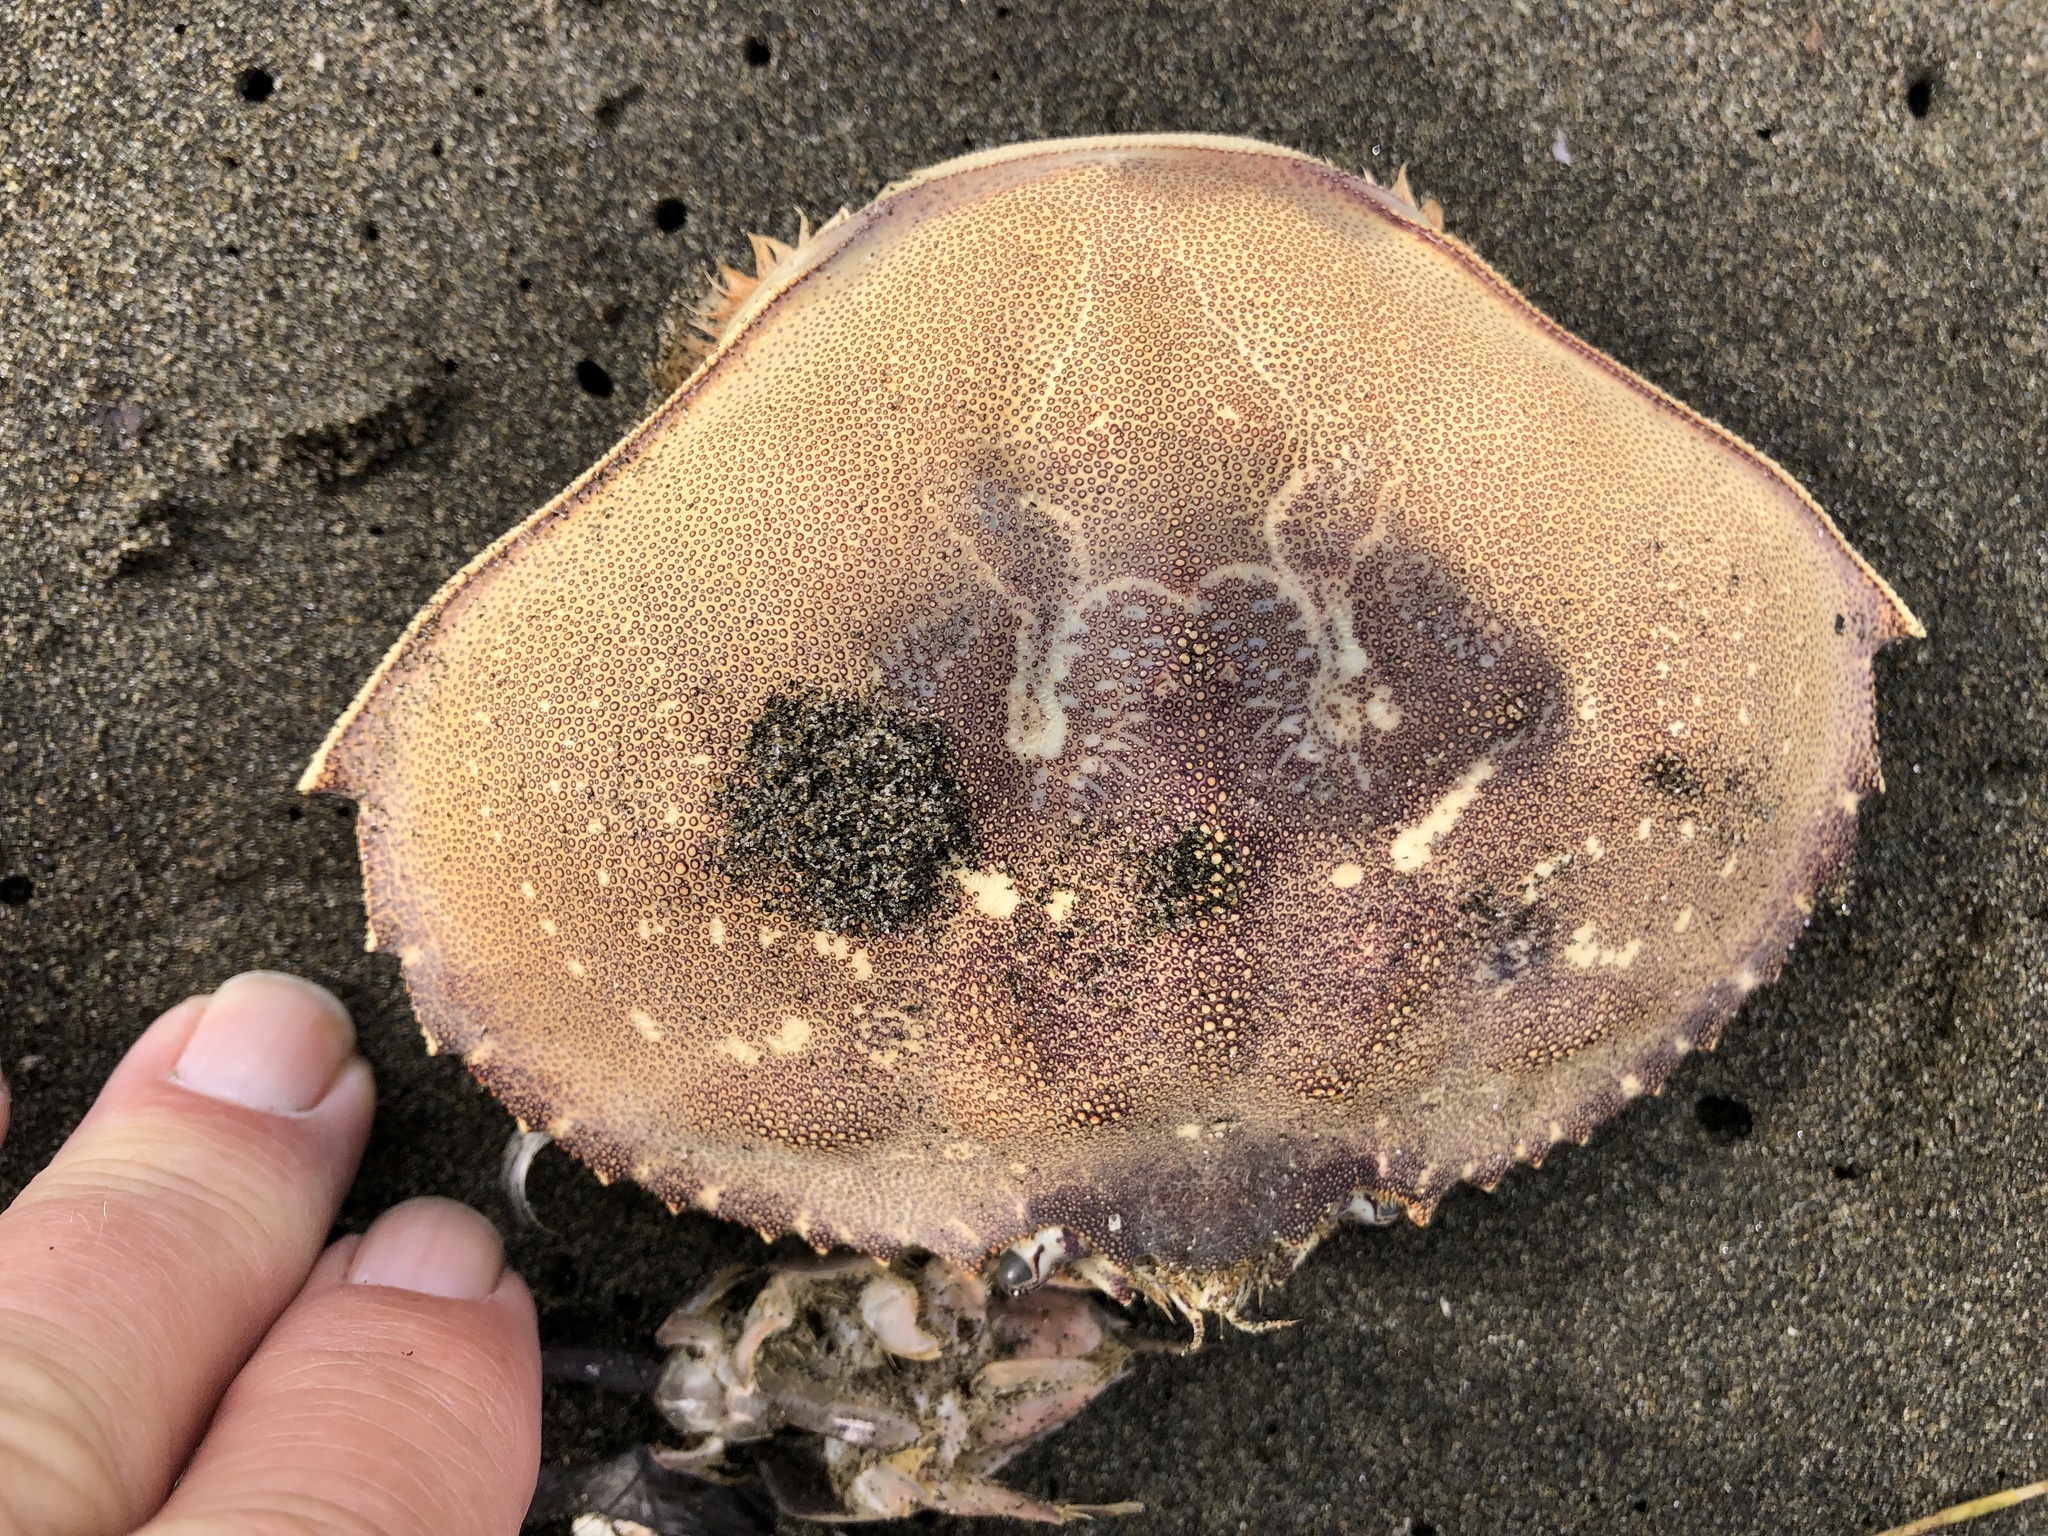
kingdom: Animalia
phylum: Arthropoda
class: Malacostraca
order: Decapoda
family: Cancridae
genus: Metacarcinus
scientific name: Metacarcinus magister
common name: Californian crab
